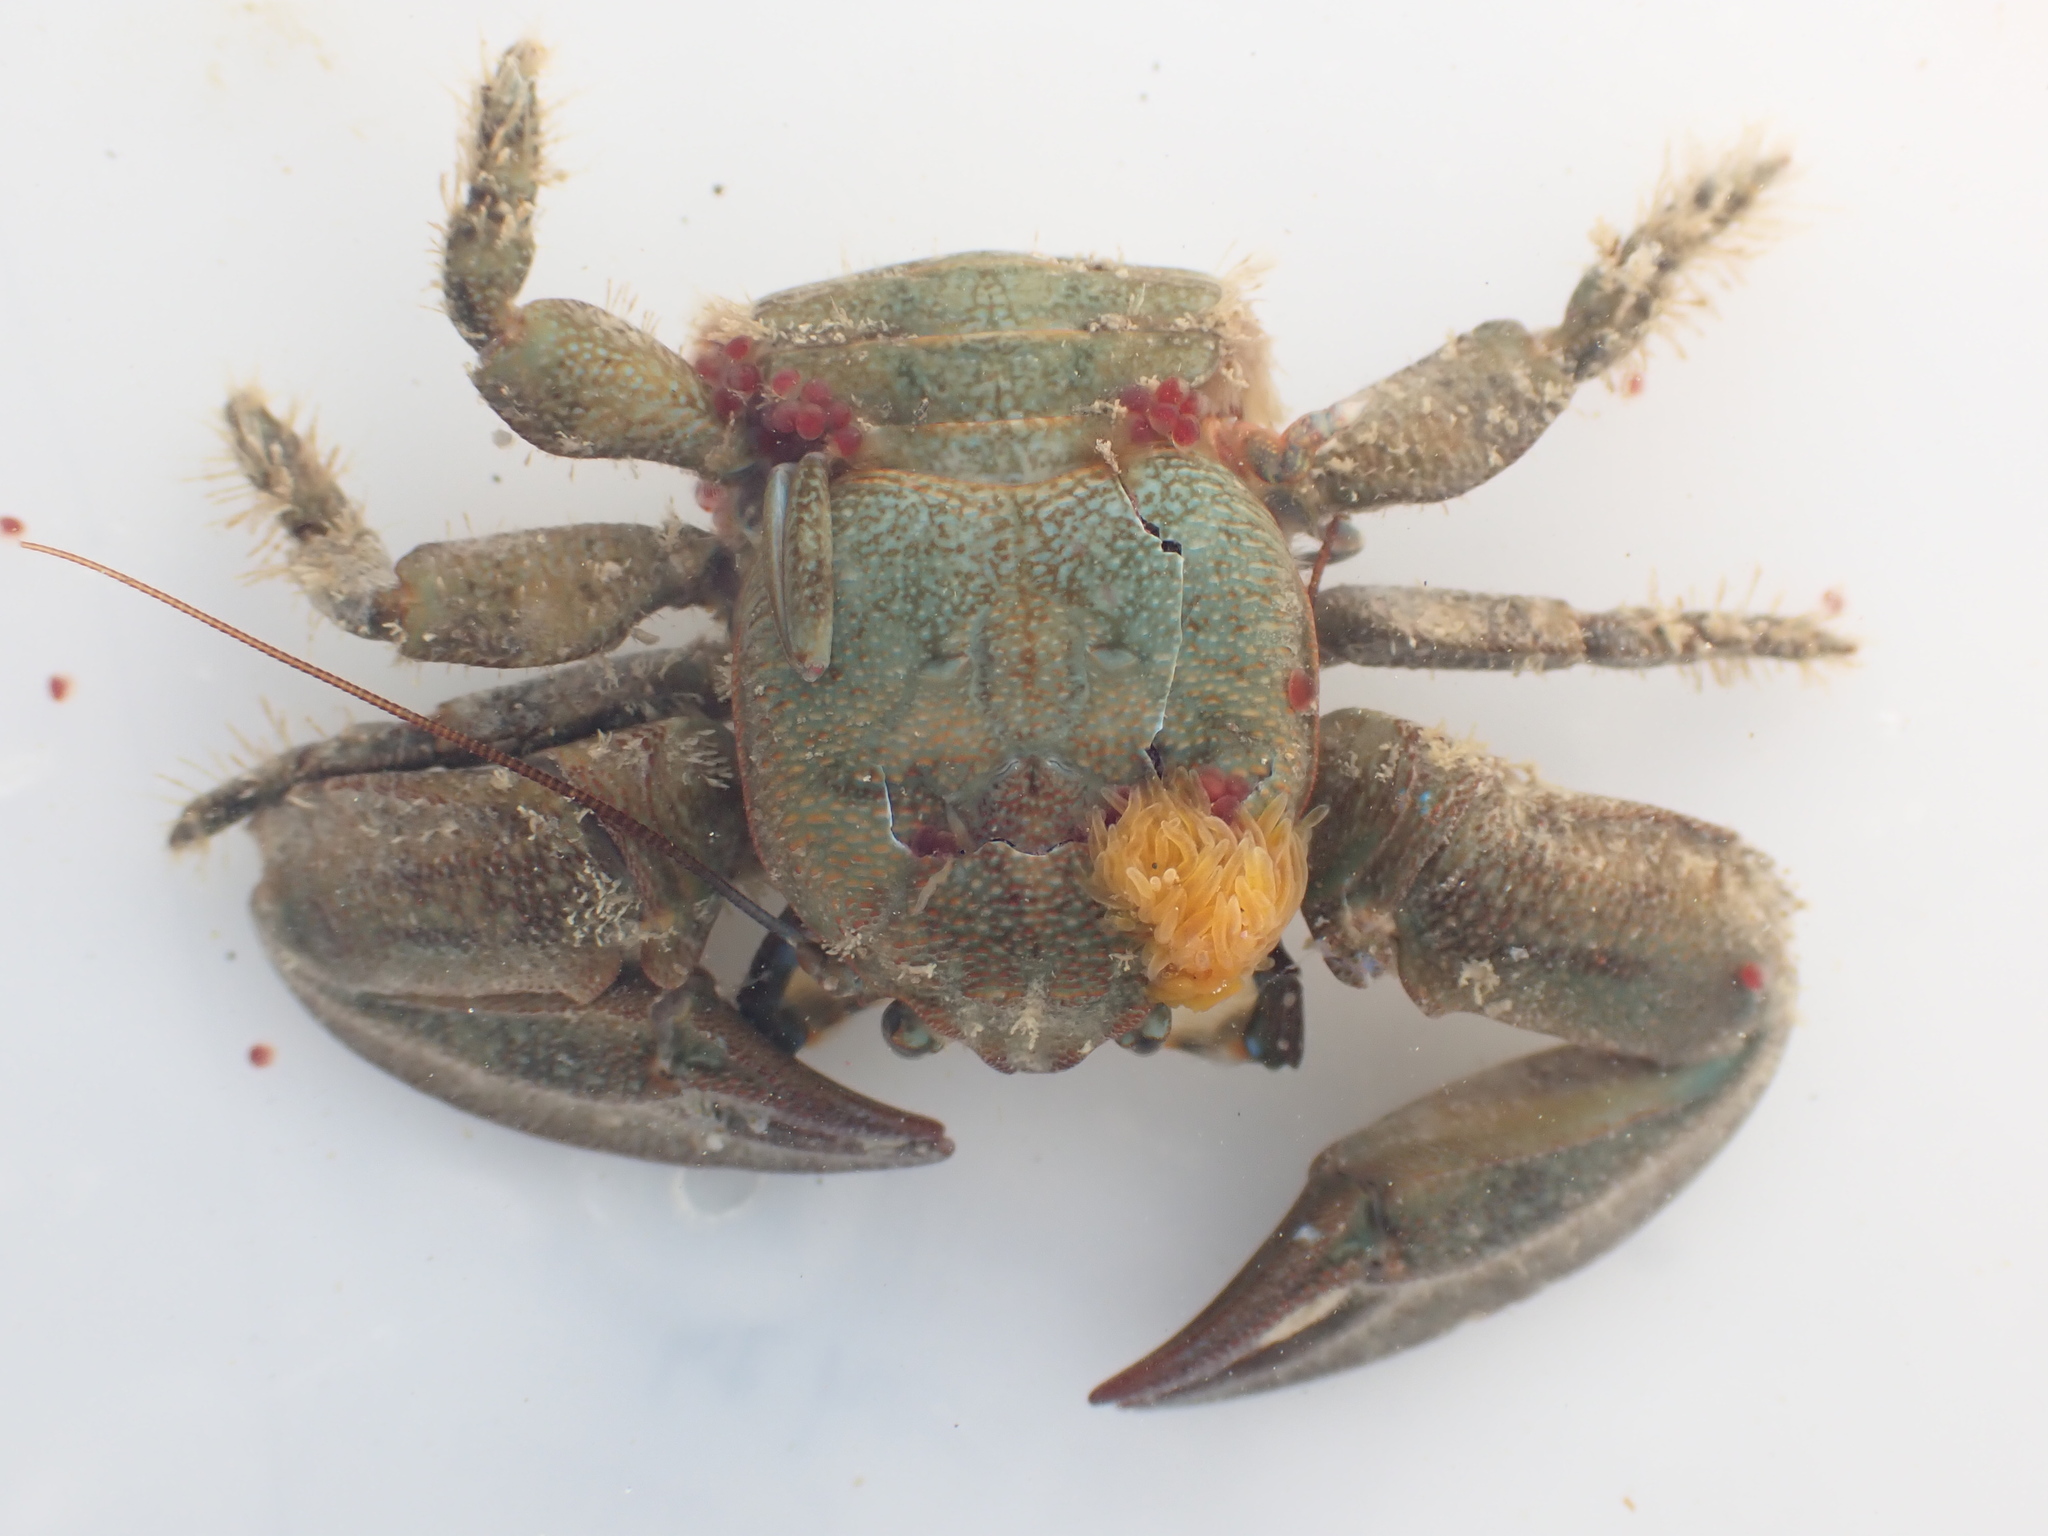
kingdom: Animalia
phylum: Arthropoda
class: Malacostraca
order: Decapoda
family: Porcellanidae
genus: Petrolisthes
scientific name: Petrolisthes elongatus
